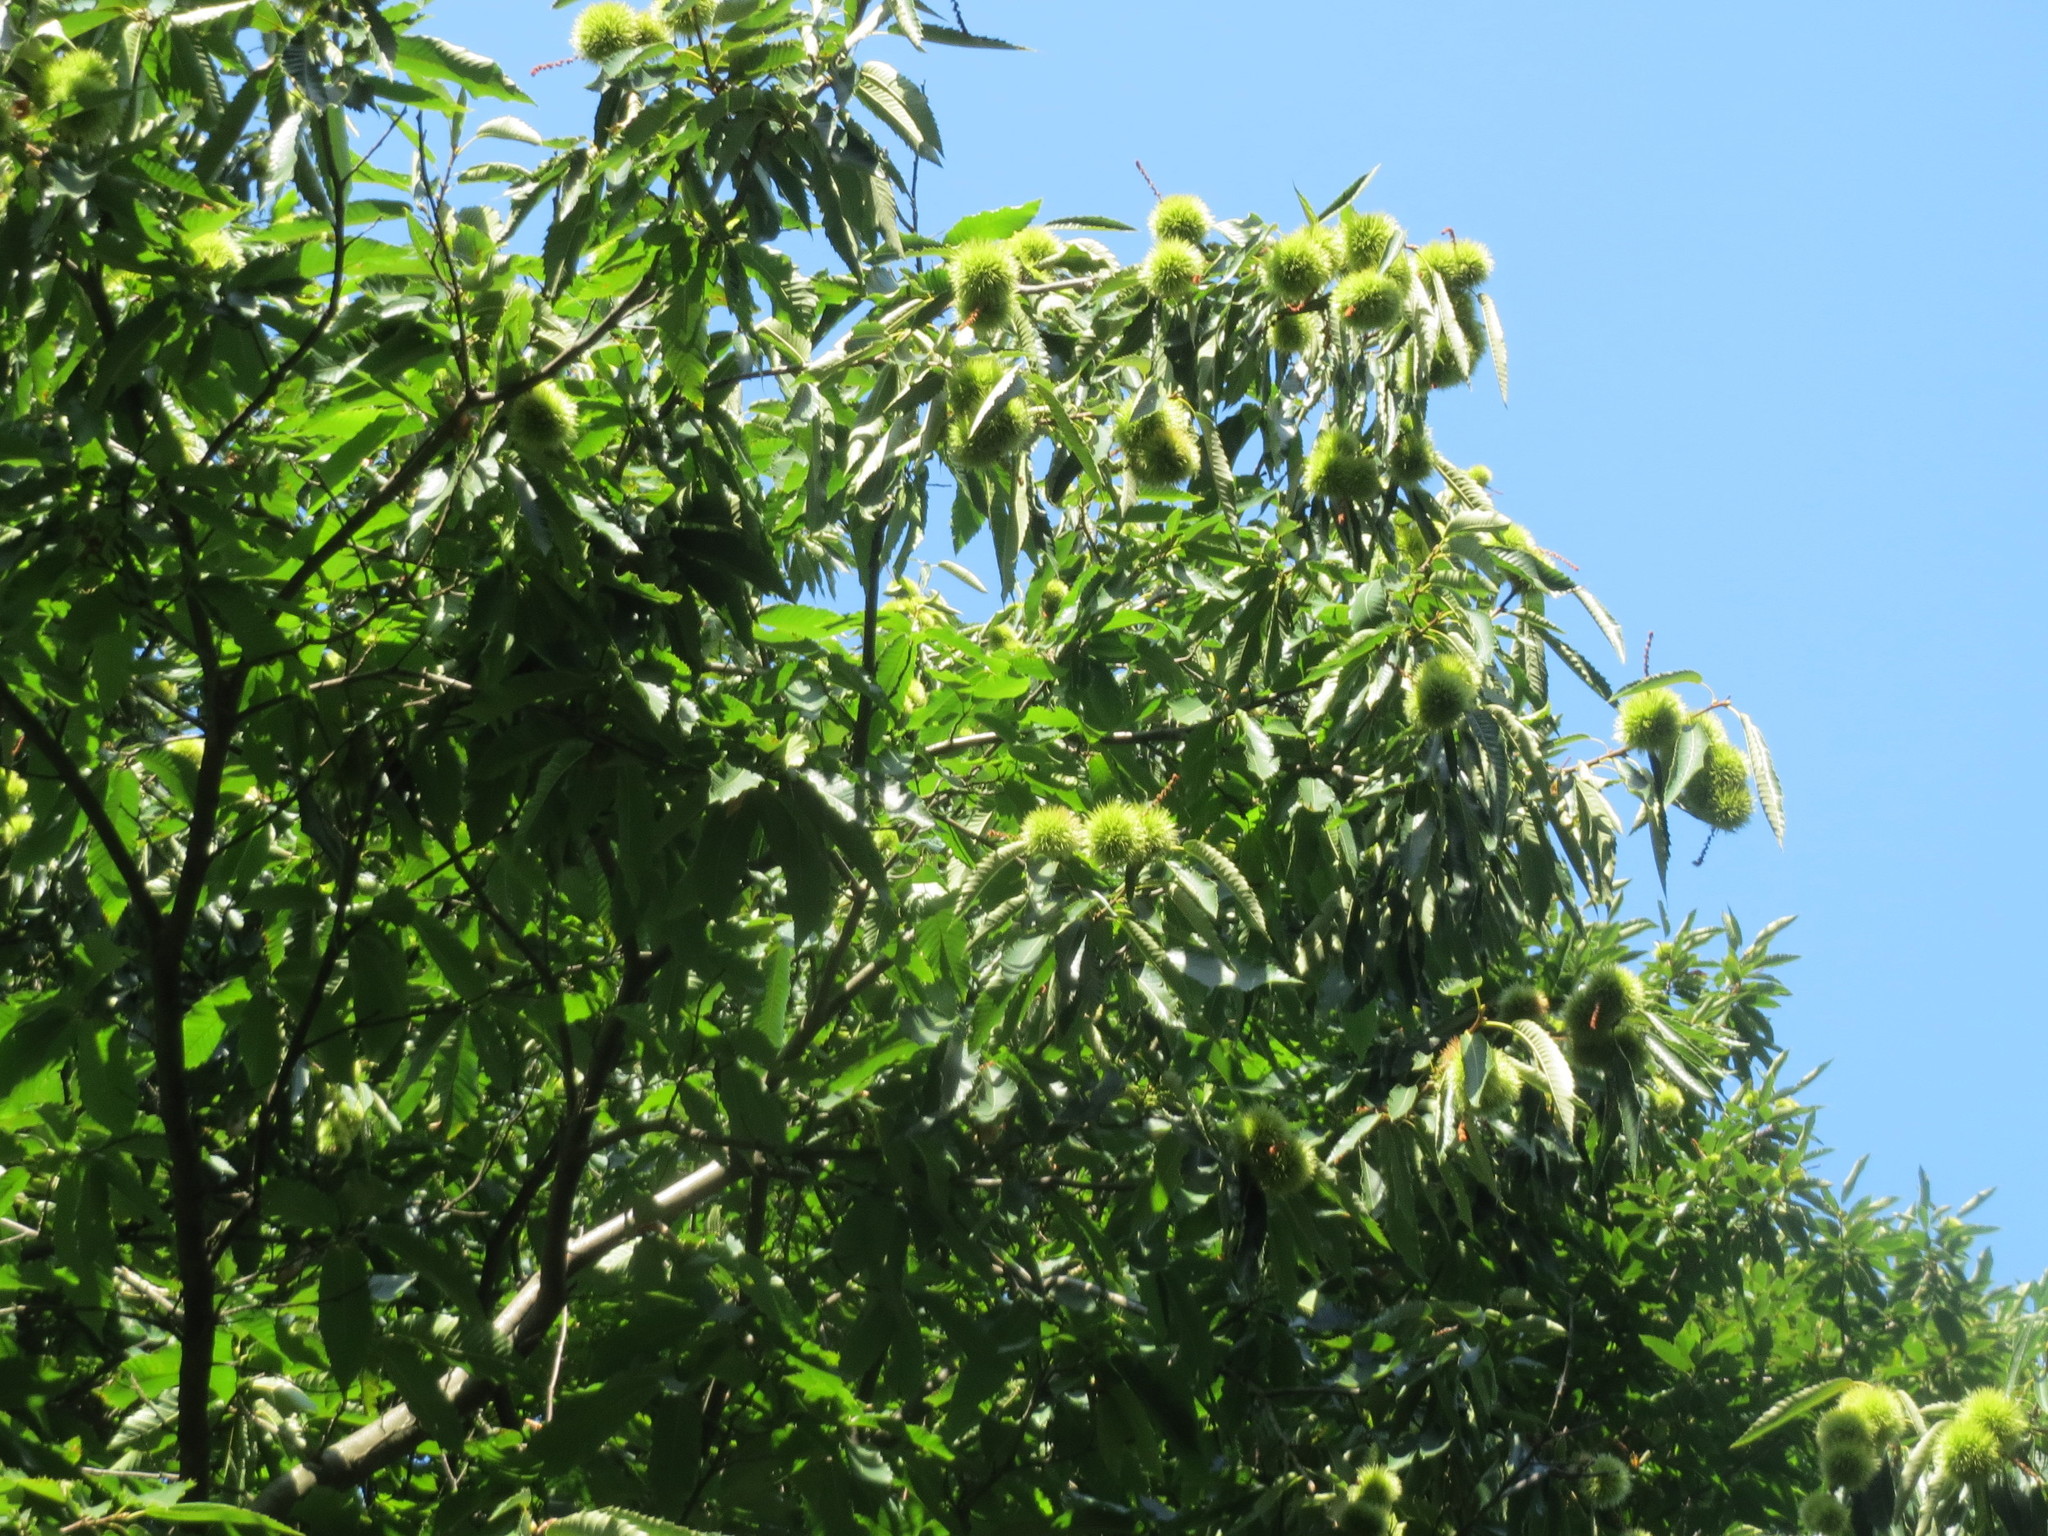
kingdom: Plantae
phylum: Tracheophyta
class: Magnoliopsida
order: Fagales
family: Fagaceae
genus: Castanea
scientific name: Castanea sativa
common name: Sweet chestnut
